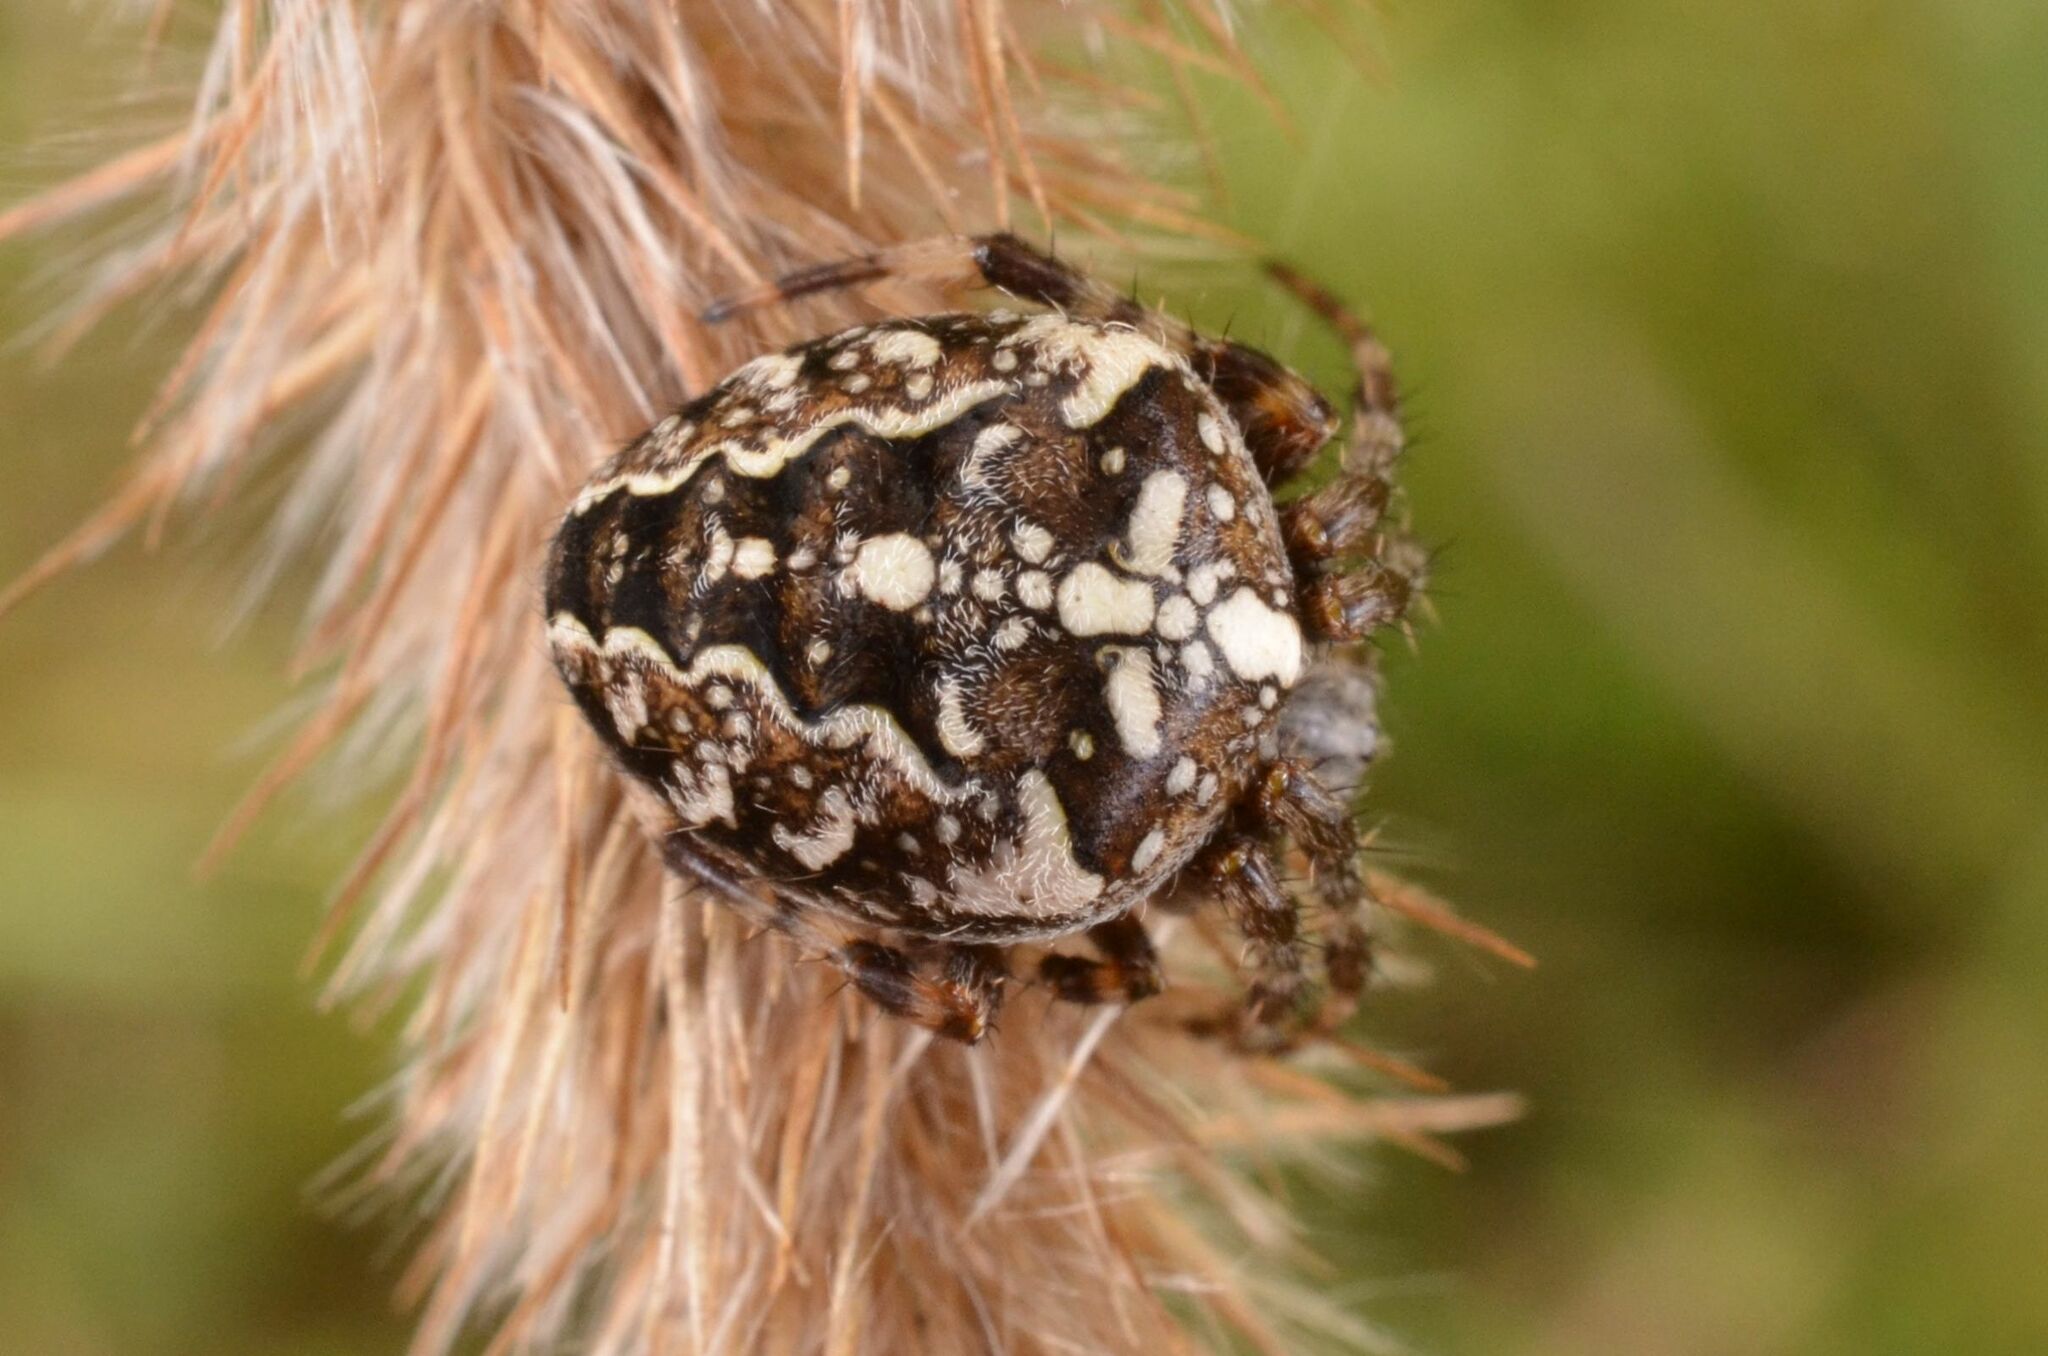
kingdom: Animalia
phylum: Arthropoda
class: Arachnida
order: Araneae
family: Araneidae
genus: Araneus
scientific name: Araneus diadematus
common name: Cross orbweaver
